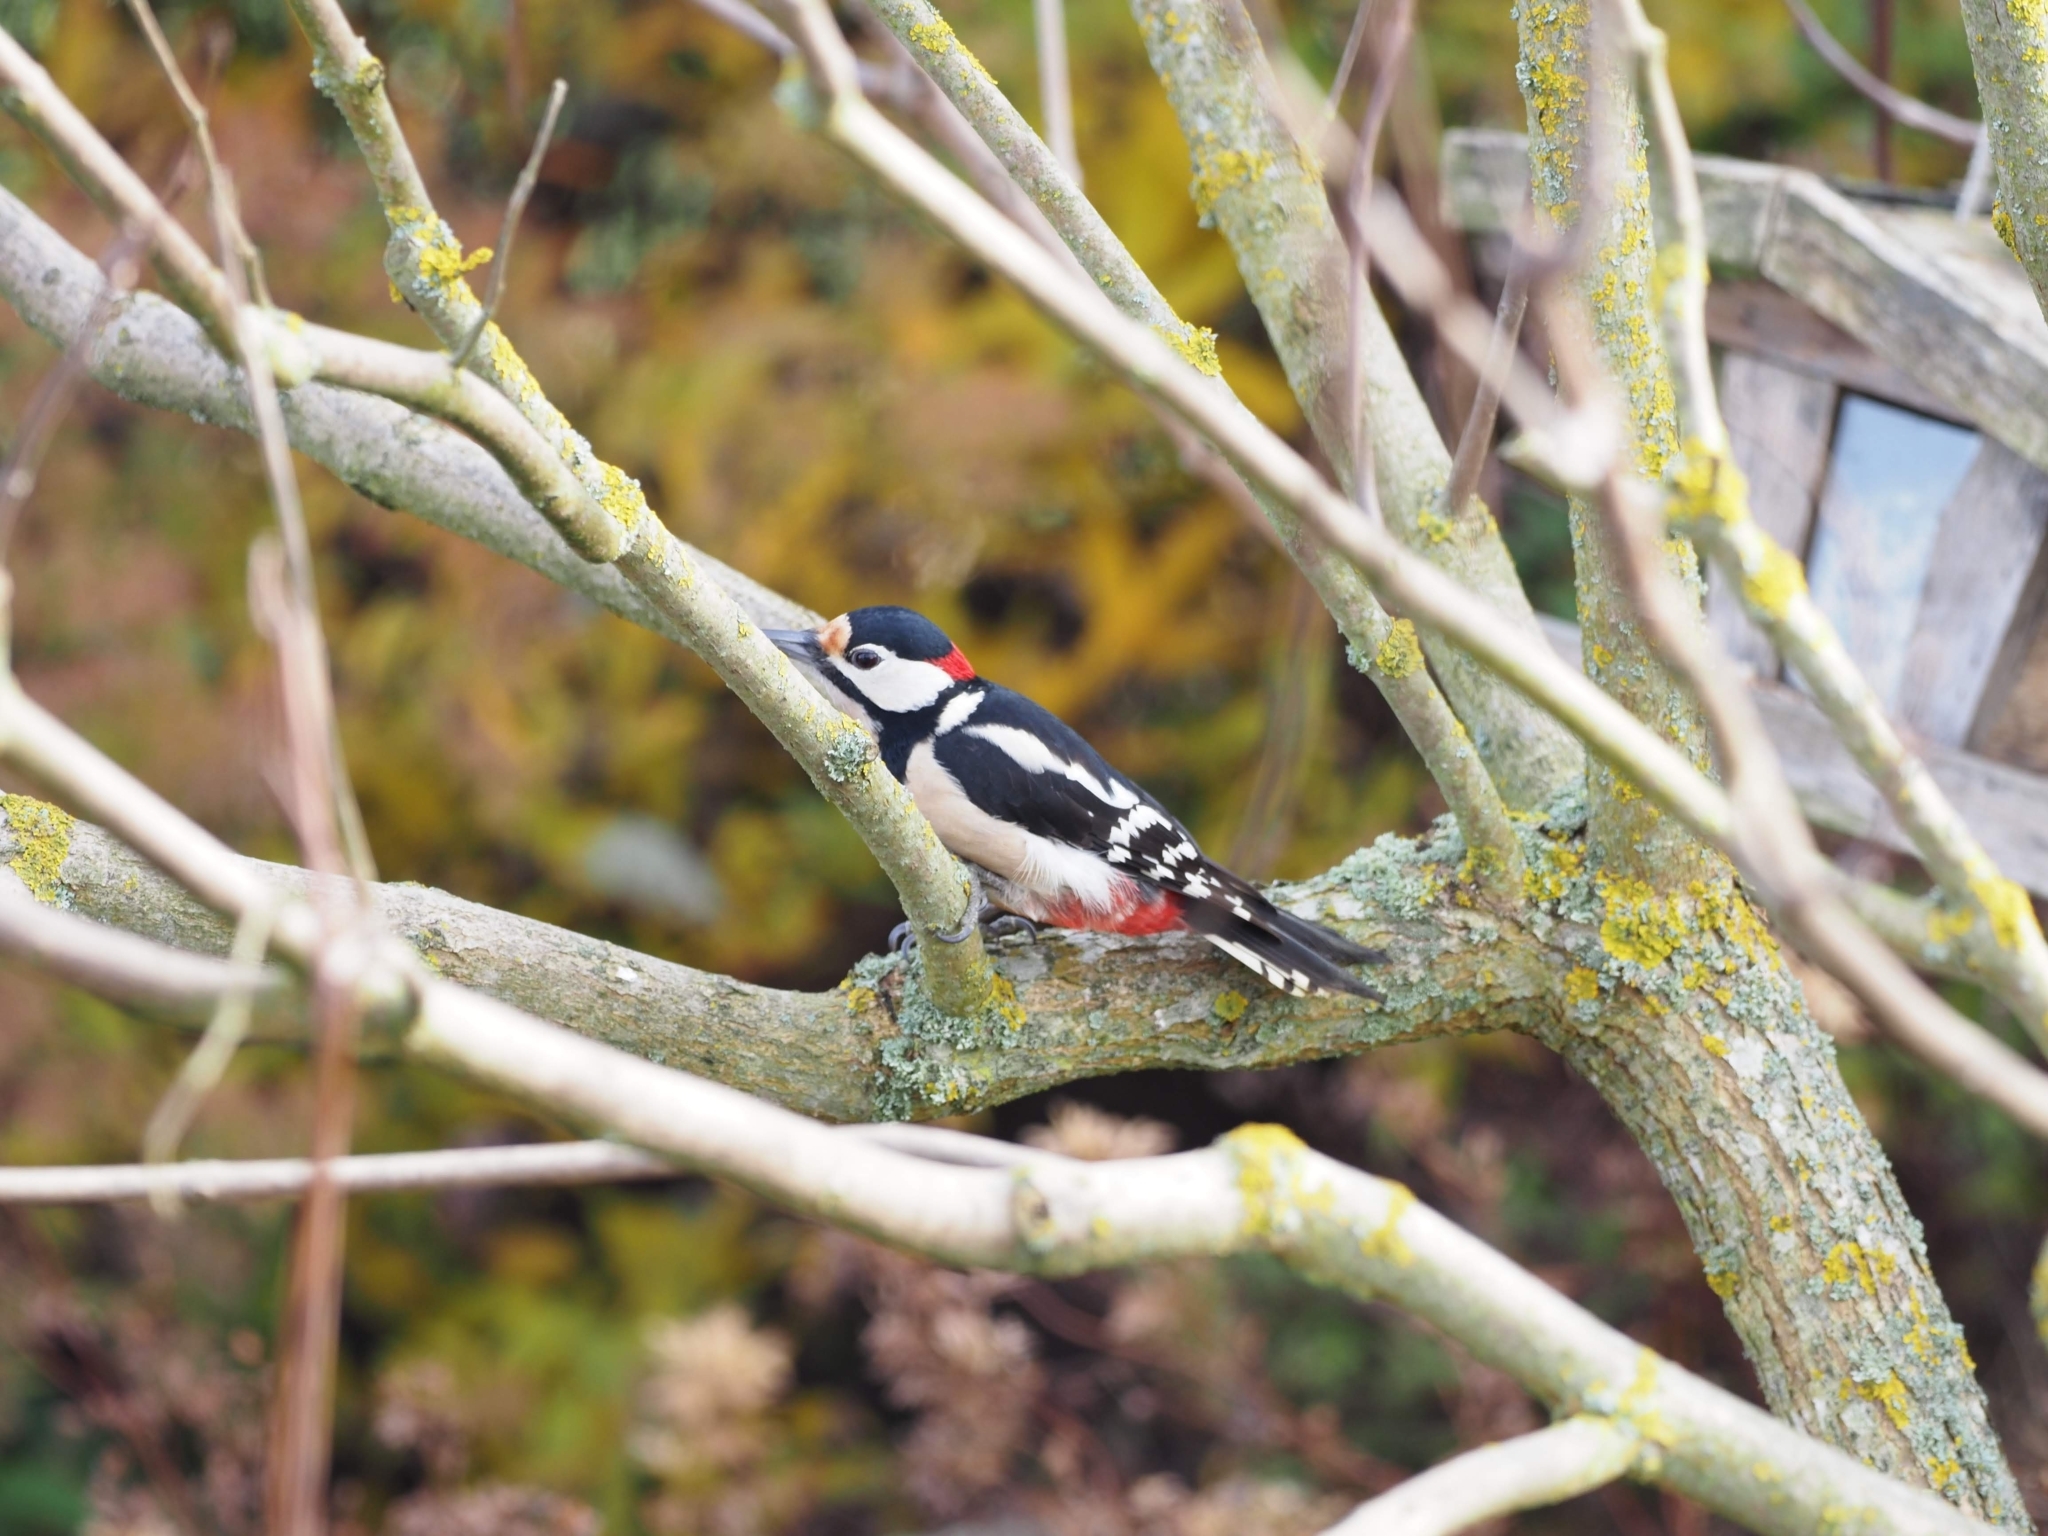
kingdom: Animalia
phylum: Chordata
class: Aves
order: Piciformes
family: Picidae
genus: Dendrocopos
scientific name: Dendrocopos major
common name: Great spotted woodpecker
